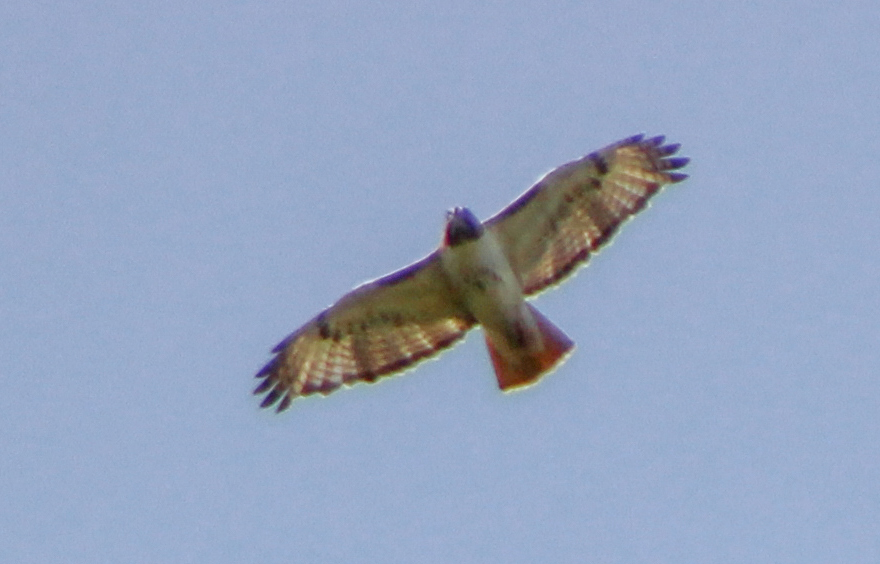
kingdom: Animalia
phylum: Chordata
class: Aves
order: Accipitriformes
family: Accipitridae
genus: Buteo
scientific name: Buteo jamaicensis
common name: Red-tailed hawk
